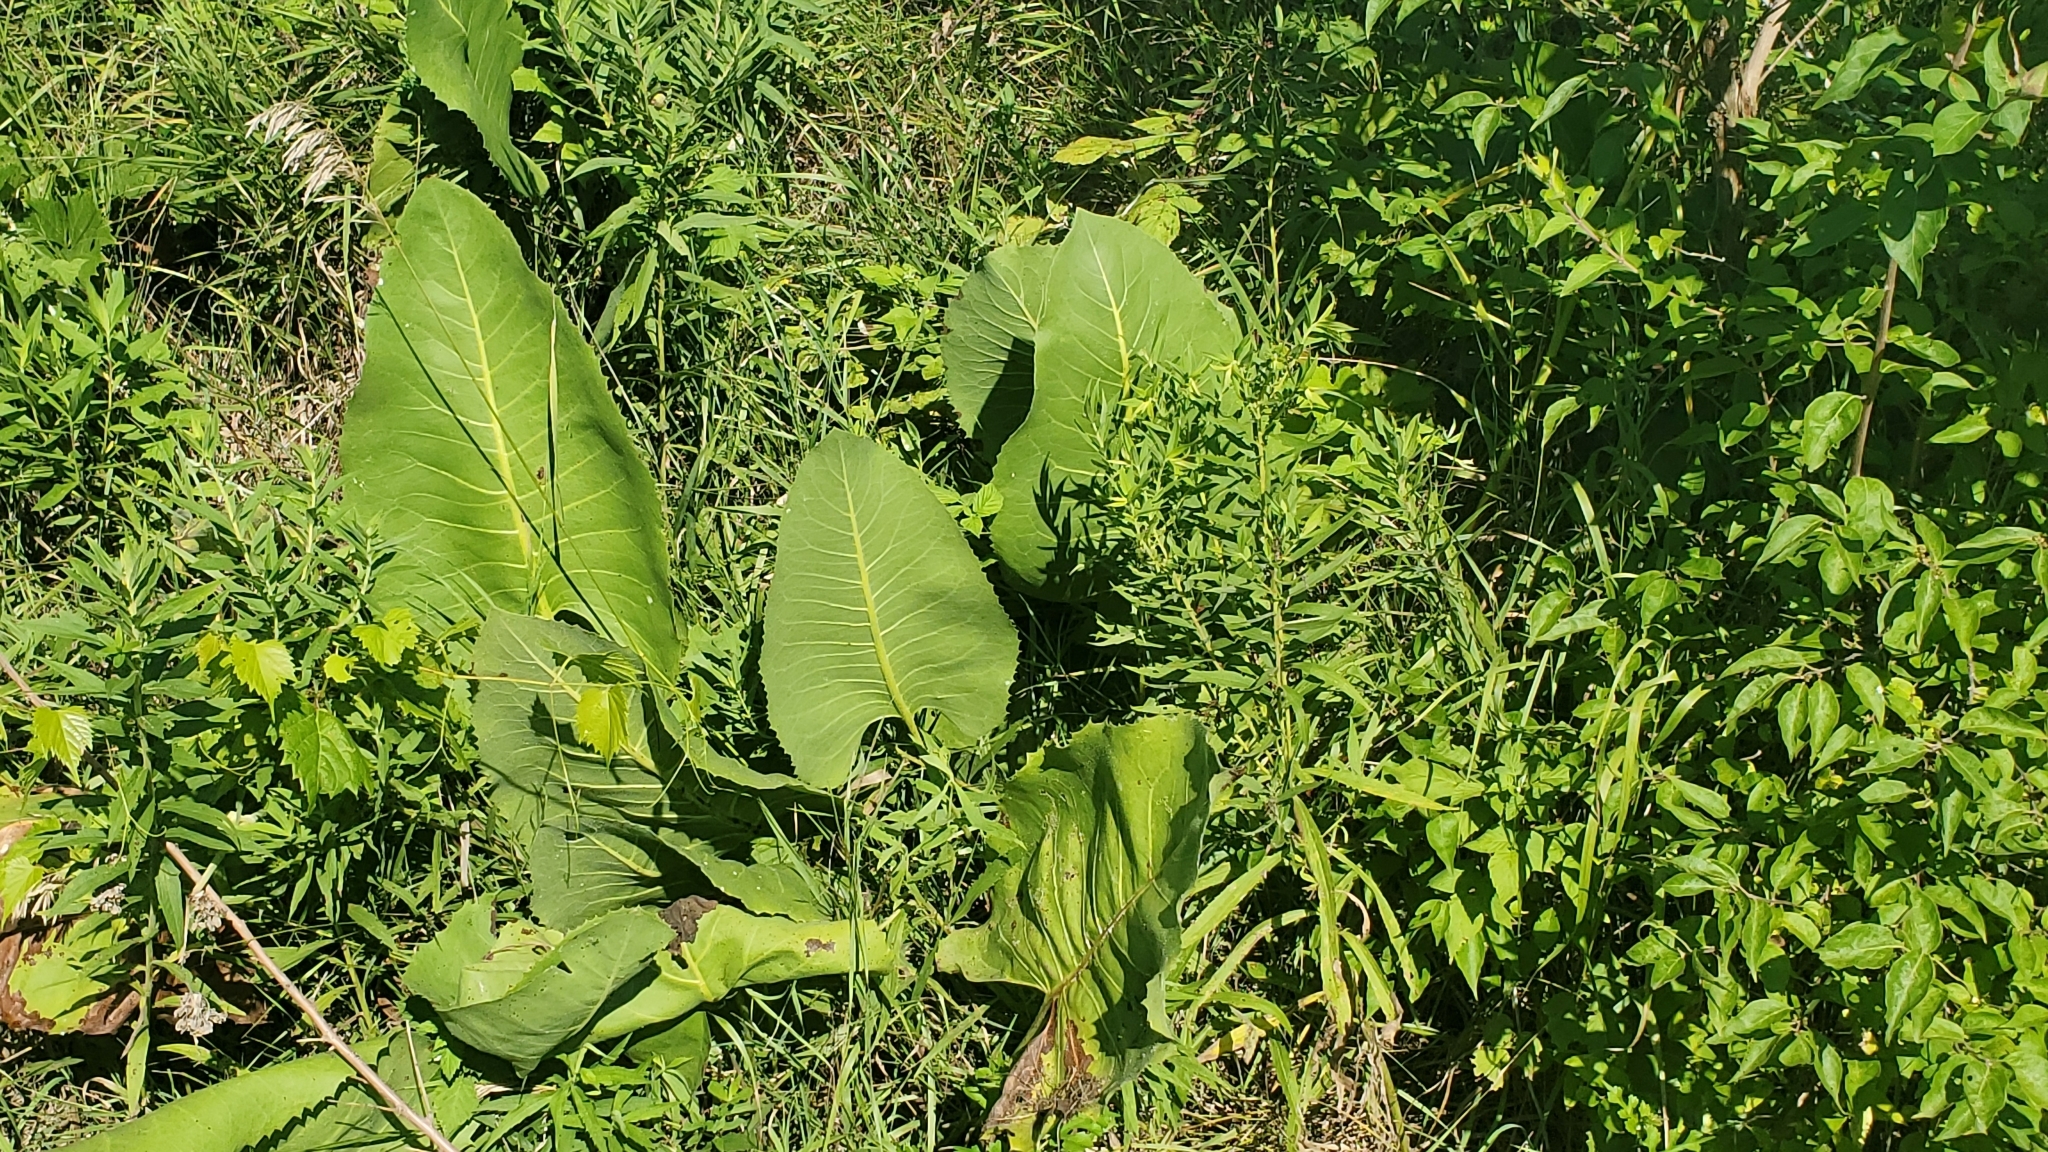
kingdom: Plantae
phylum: Tracheophyta
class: Magnoliopsida
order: Asterales
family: Asteraceae
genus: Silphium
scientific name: Silphium terebinthinaceum
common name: Basal-leaf rosinweed
